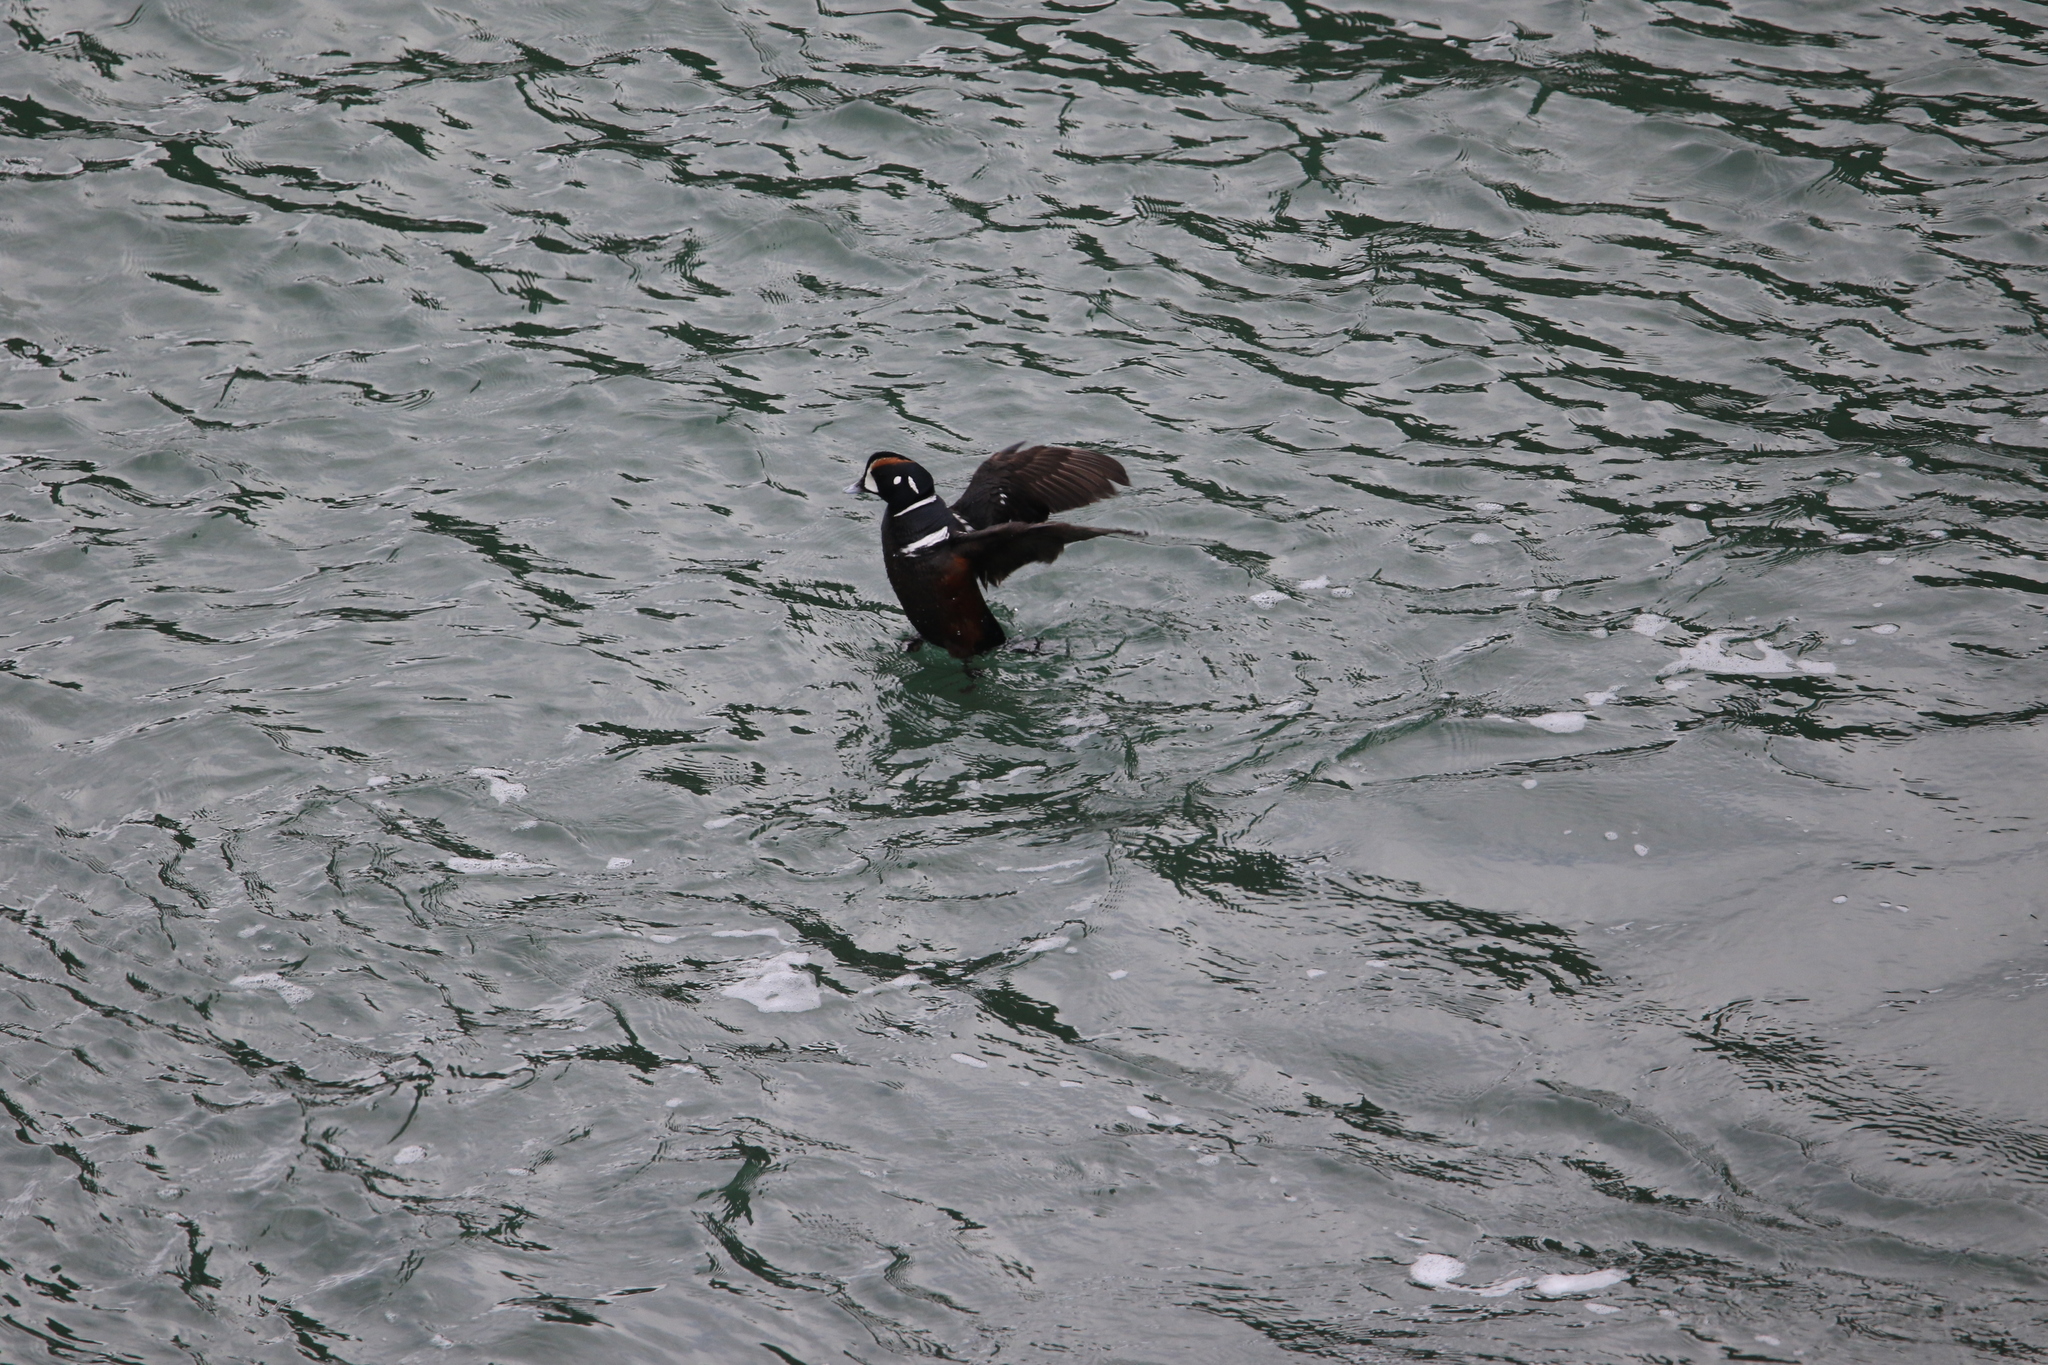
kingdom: Animalia
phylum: Chordata
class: Aves
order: Anseriformes
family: Anatidae
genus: Histrionicus
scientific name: Histrionicus histrionicus
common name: Harlequin duck
